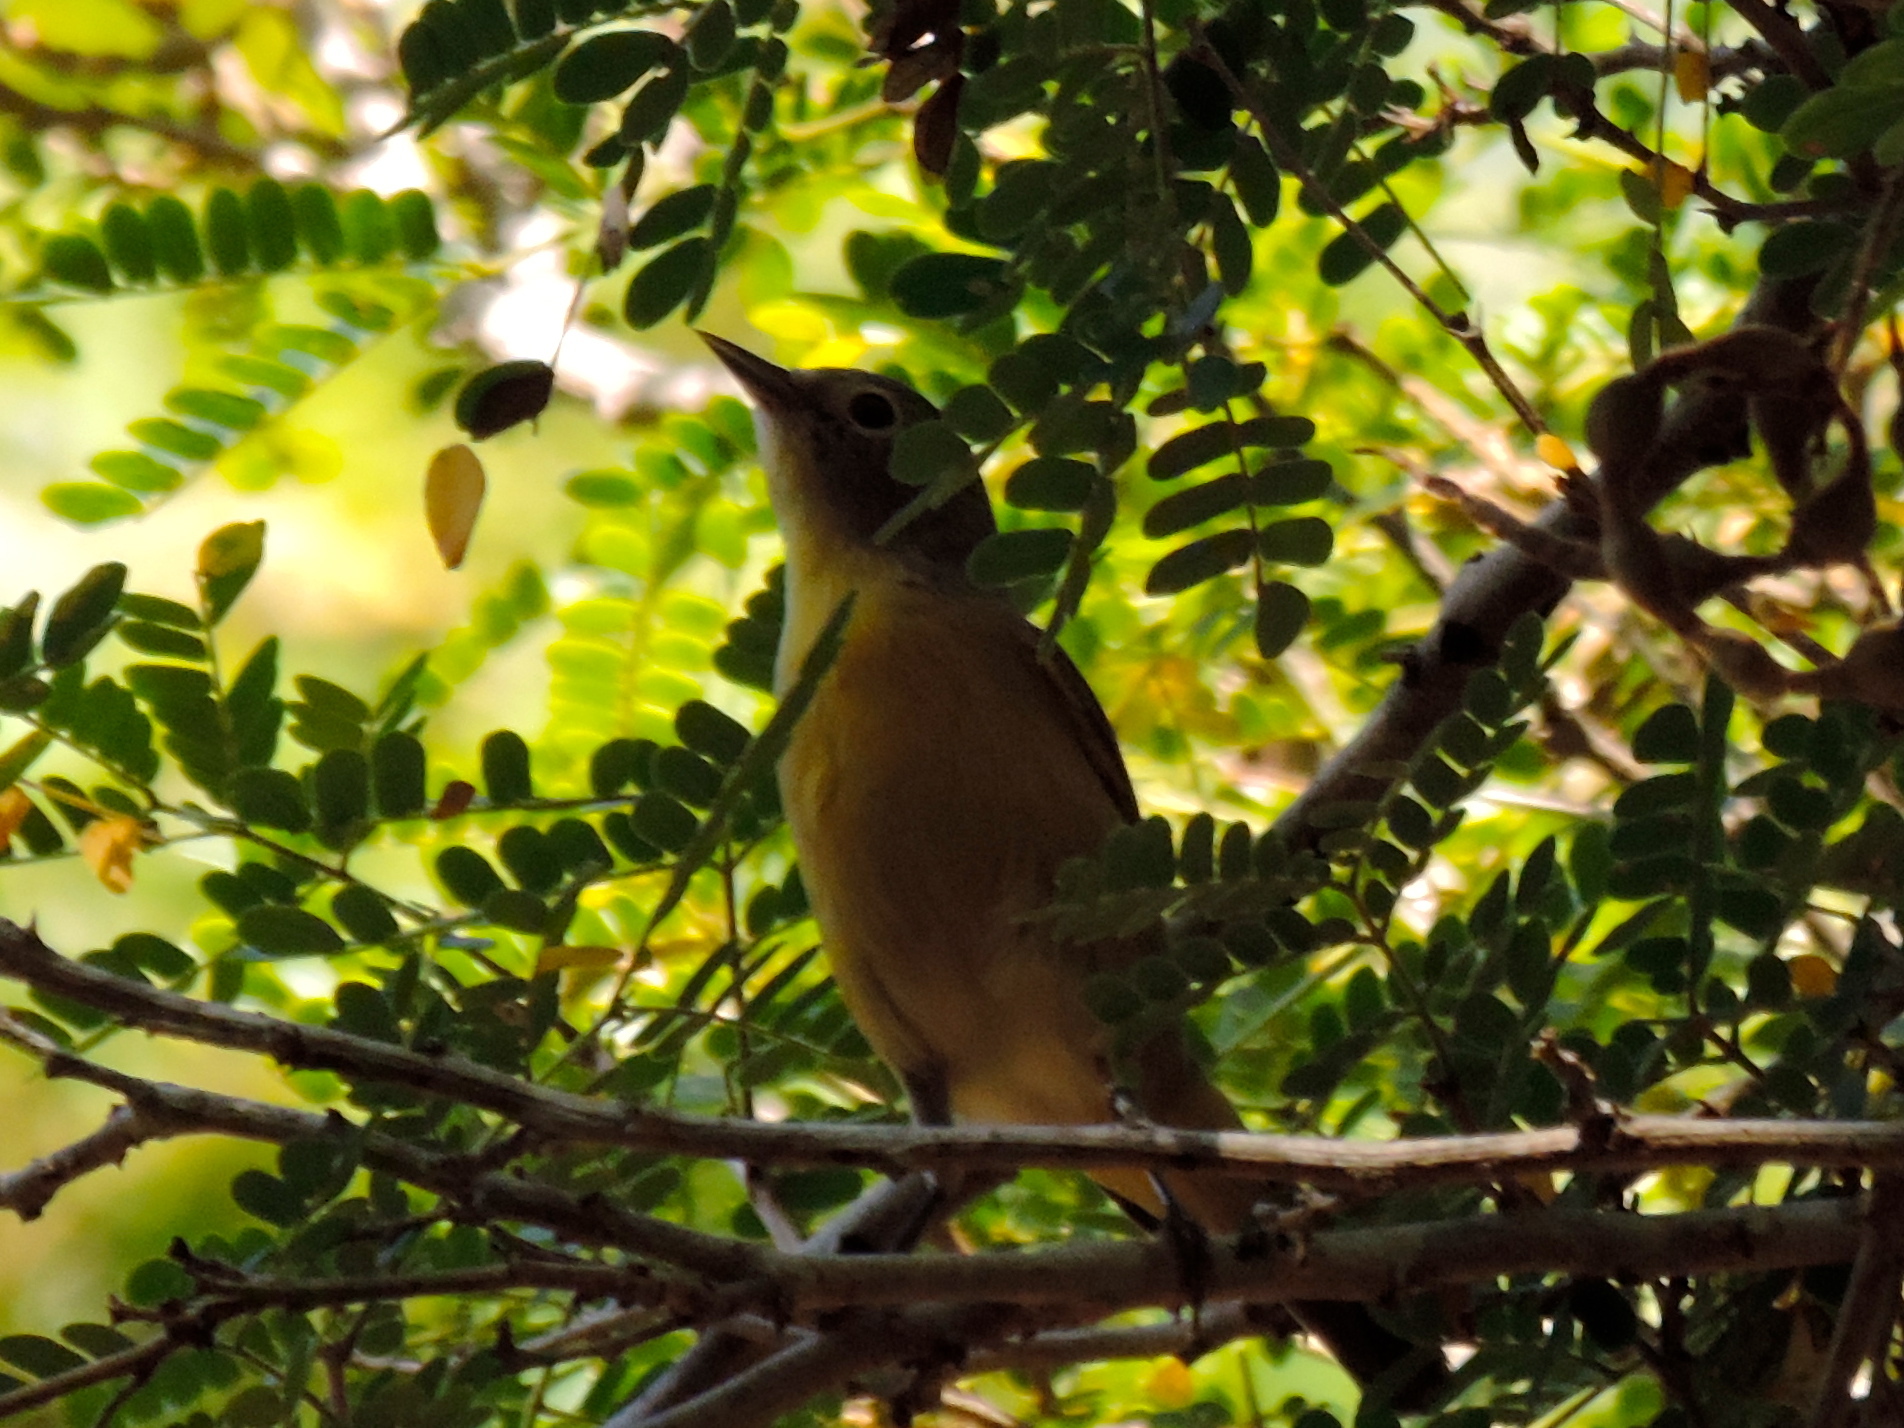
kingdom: Animalia
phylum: Chordata
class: Aves
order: Passeriformes
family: Parulidae
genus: Leiothlypis
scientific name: Leiothlypis ruficapilla
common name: Nashville warbler
